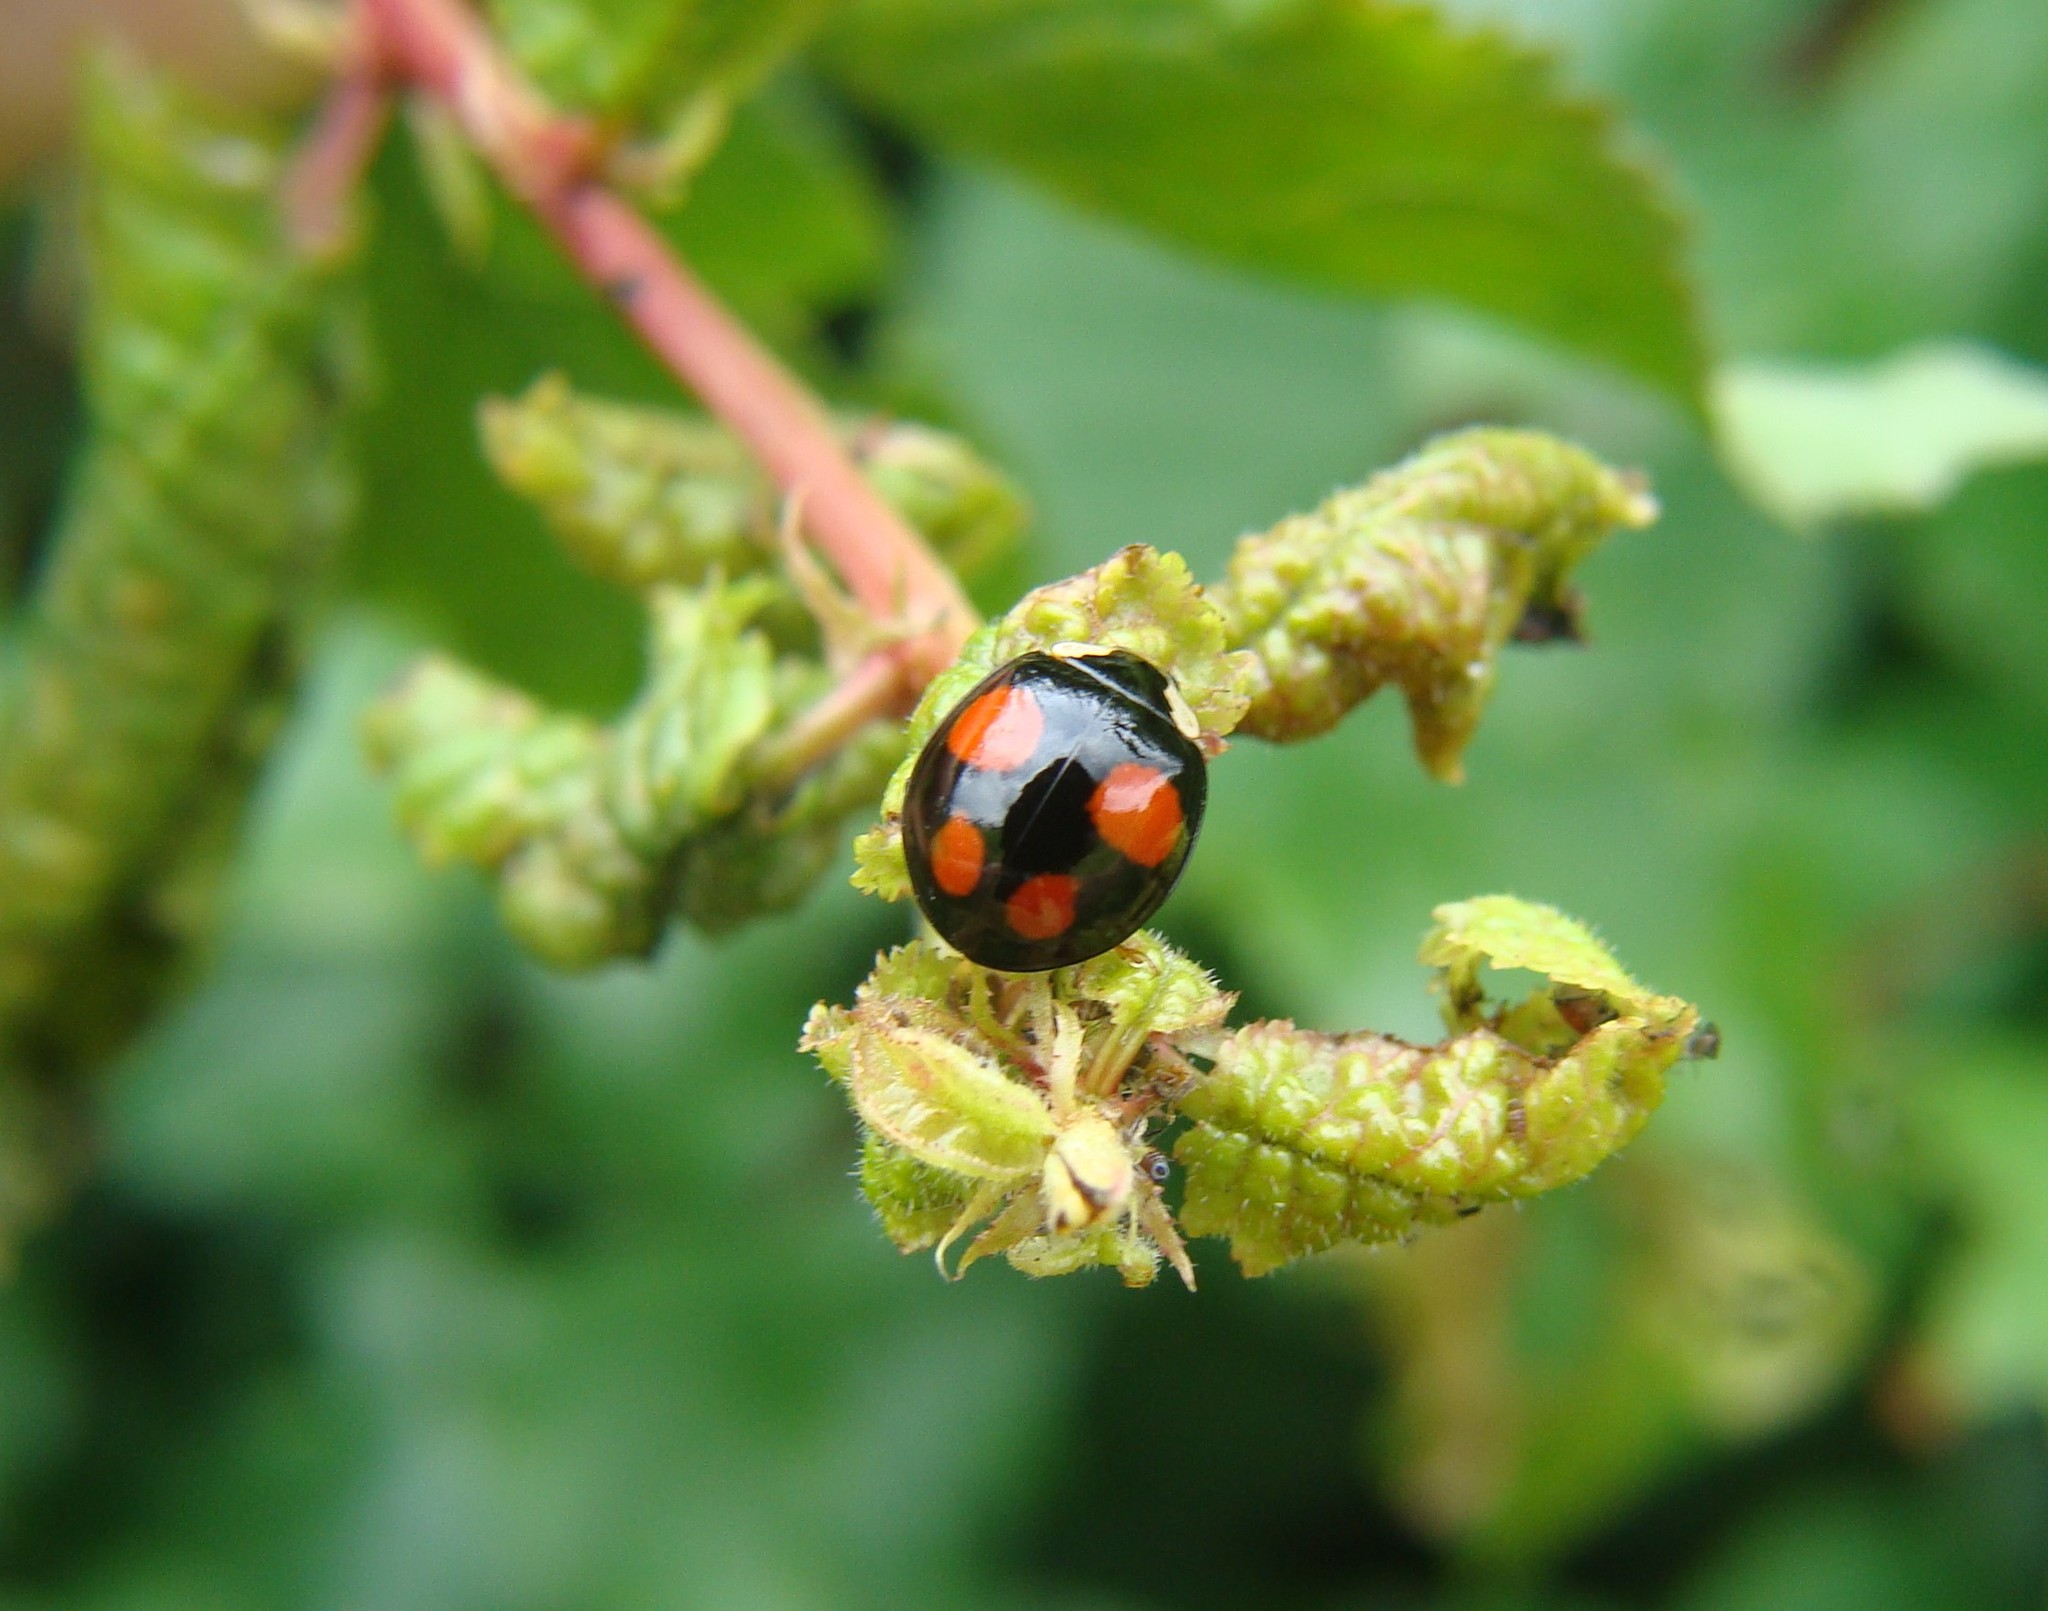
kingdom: Animalia
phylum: Arthropoda
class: Insecta
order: Coleoptera
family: Coccinellidae
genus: Harmonia
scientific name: Harmonia axyridis
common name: Harlequin ladybird
